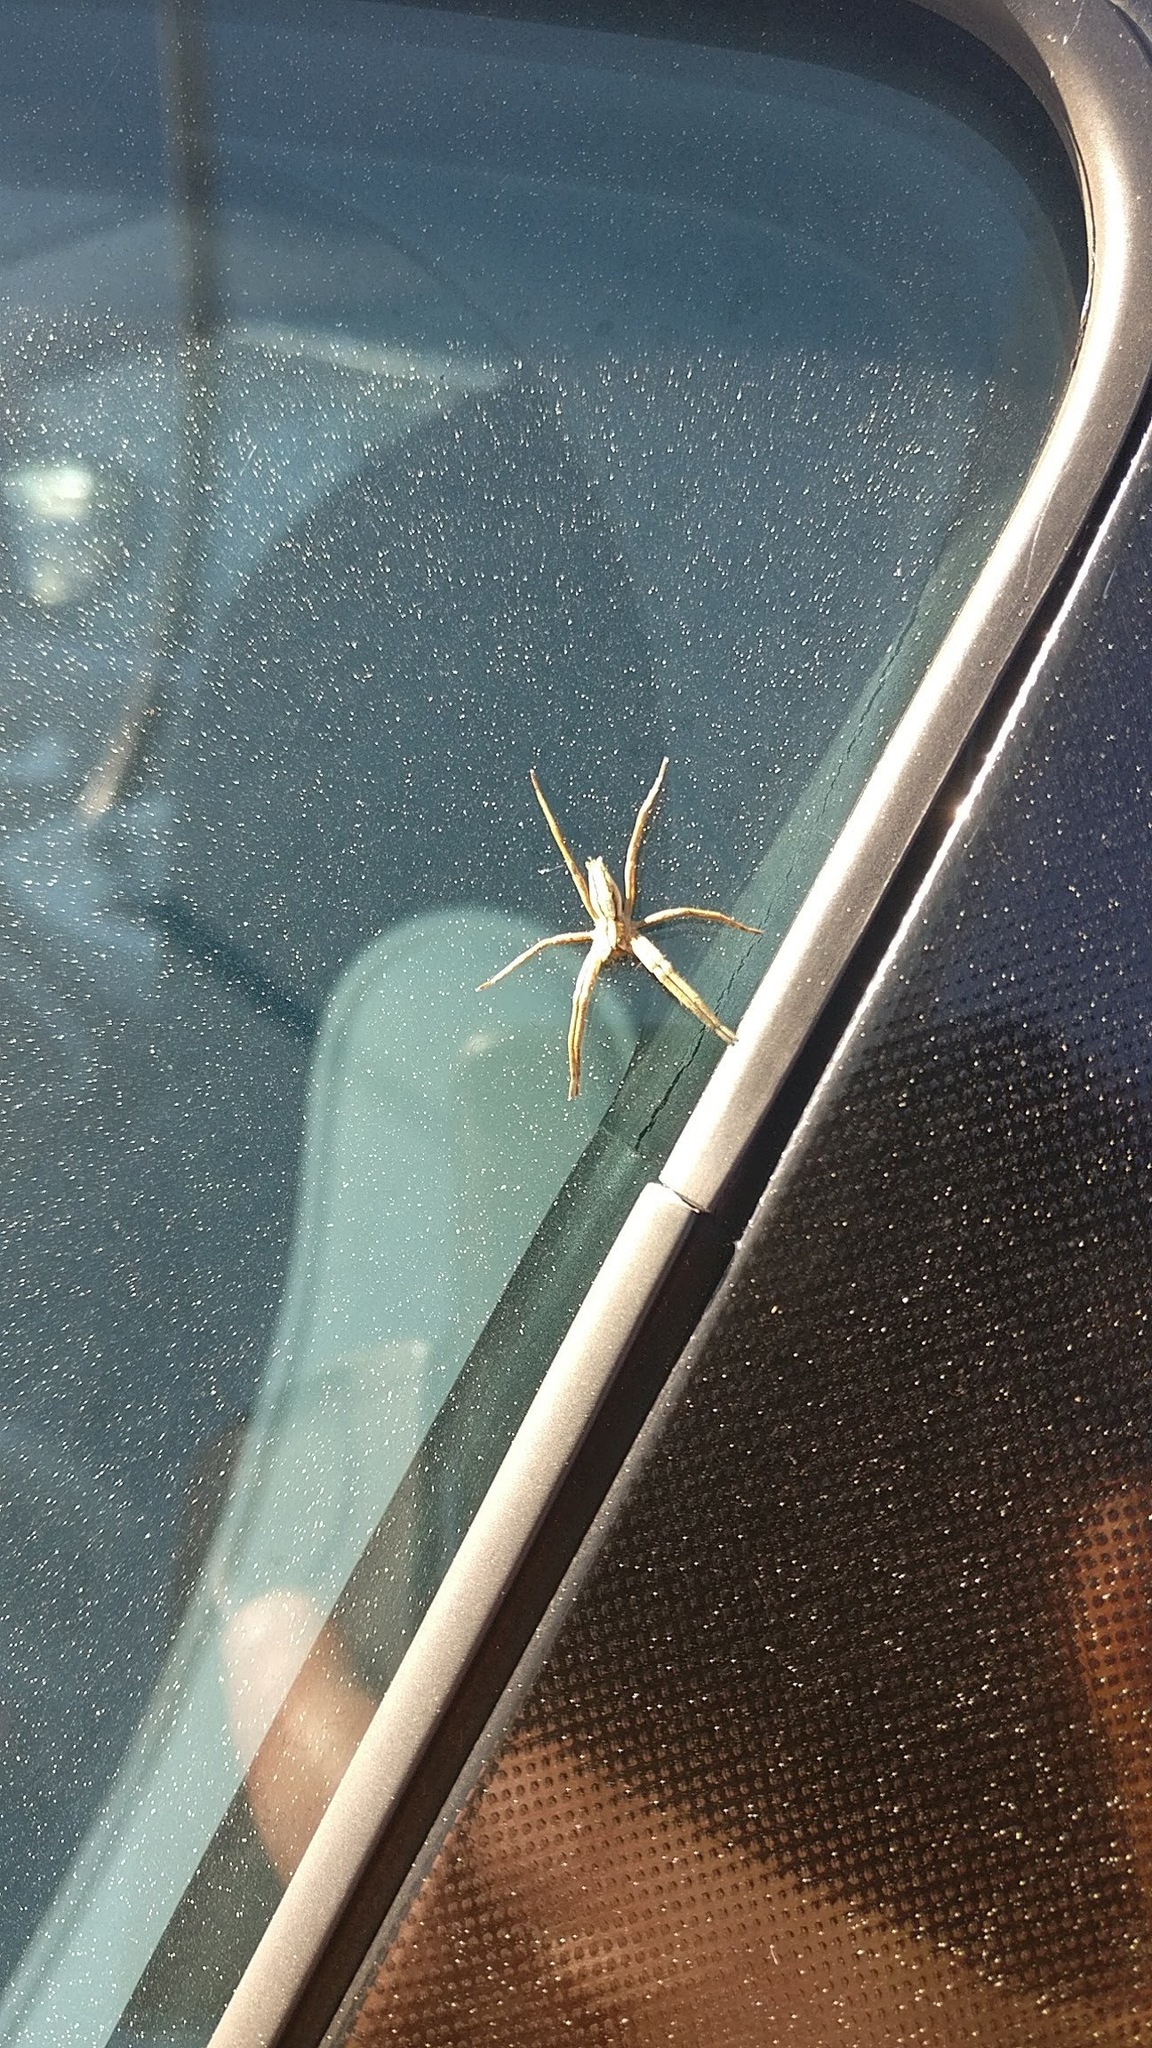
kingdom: Animalia
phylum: Arthropoda
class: Arachnida
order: Araneae
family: Pisauridae
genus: Pisaura
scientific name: Pisaura mirabilis
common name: Tent spider
